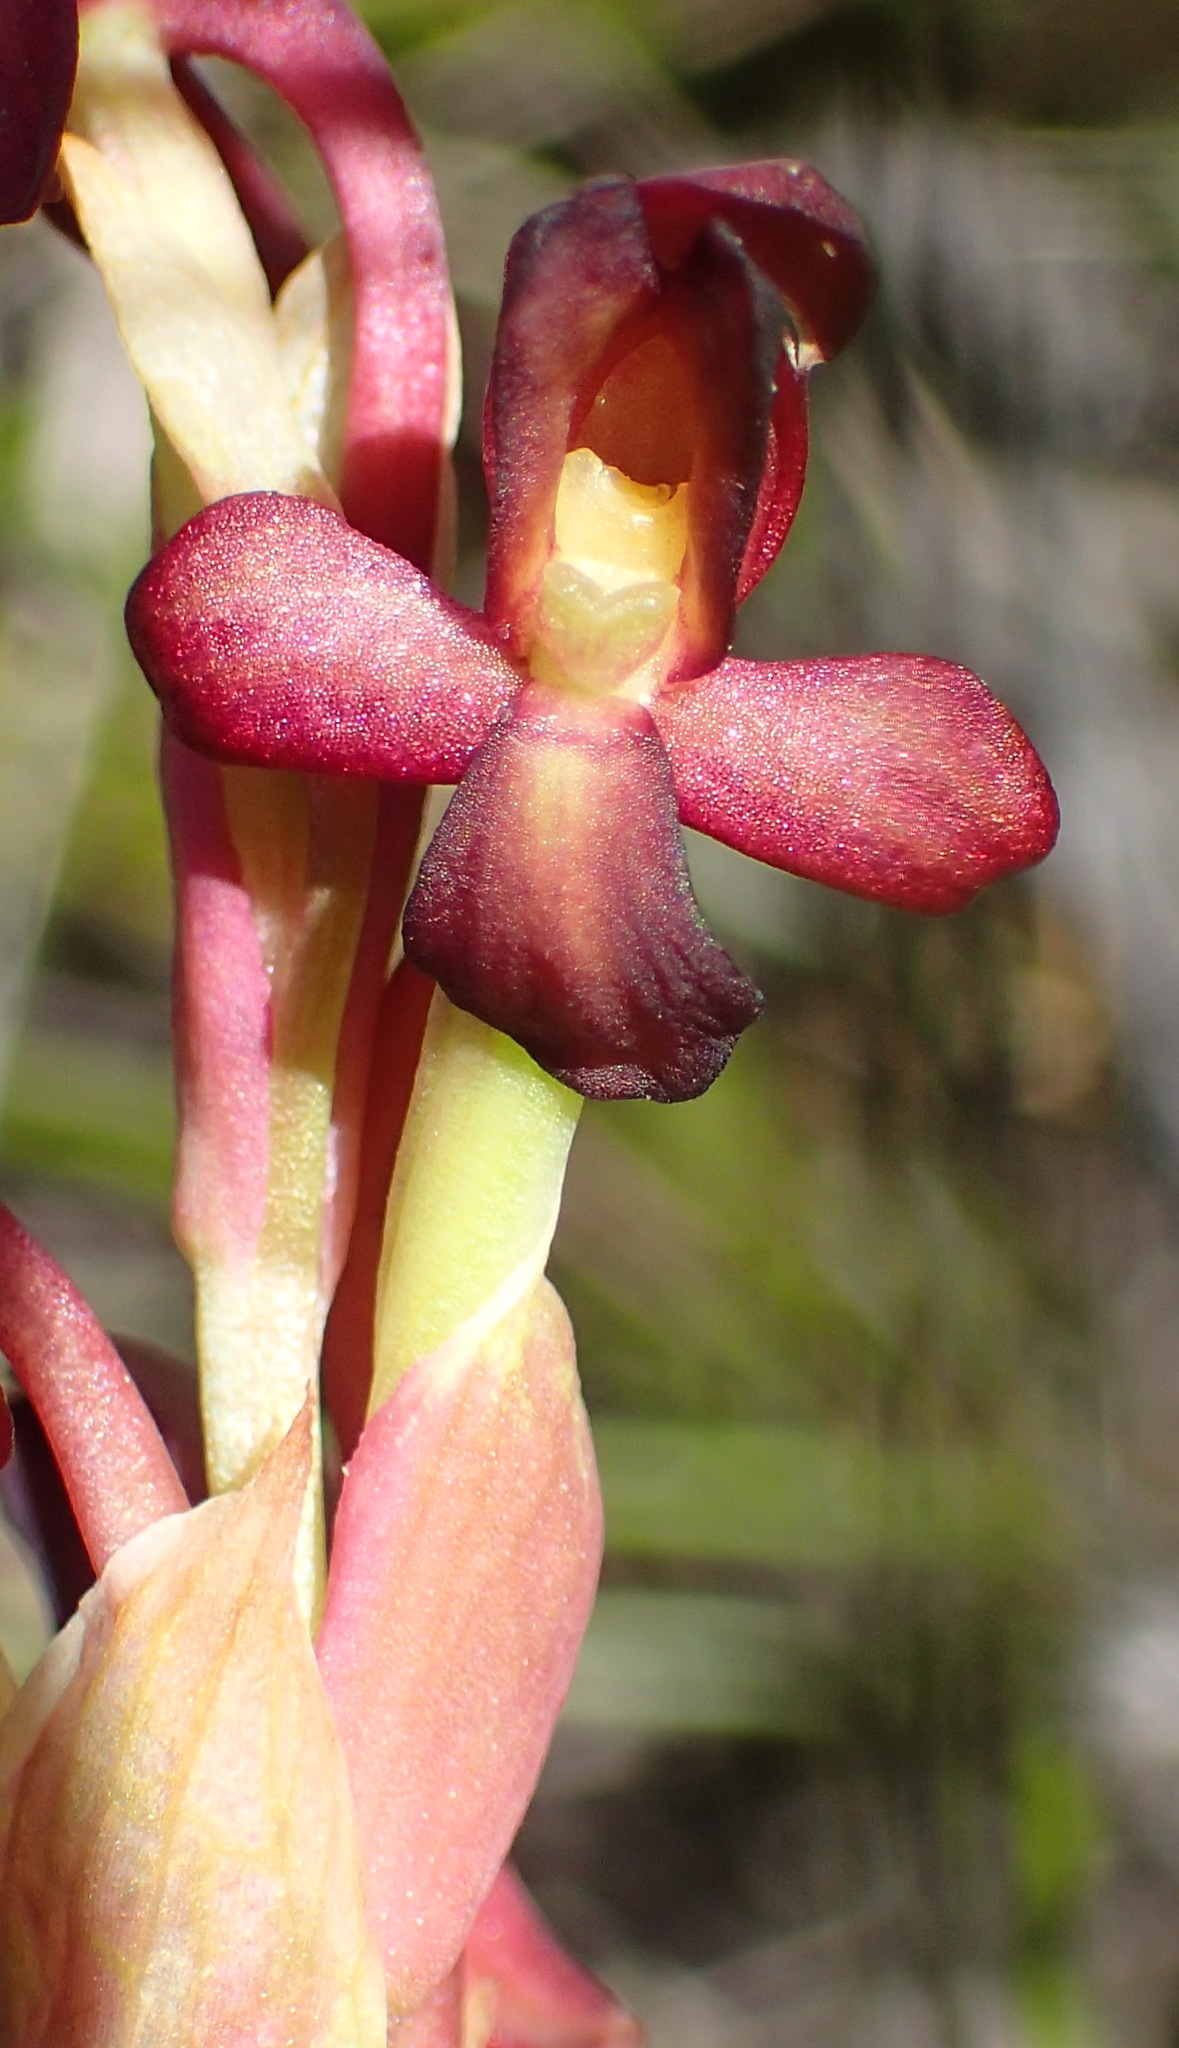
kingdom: Plantae
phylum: Tracheophyta
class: Liliopsida
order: Asparagales
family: Orchidaceae
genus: Disa
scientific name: Disa bolusiana
